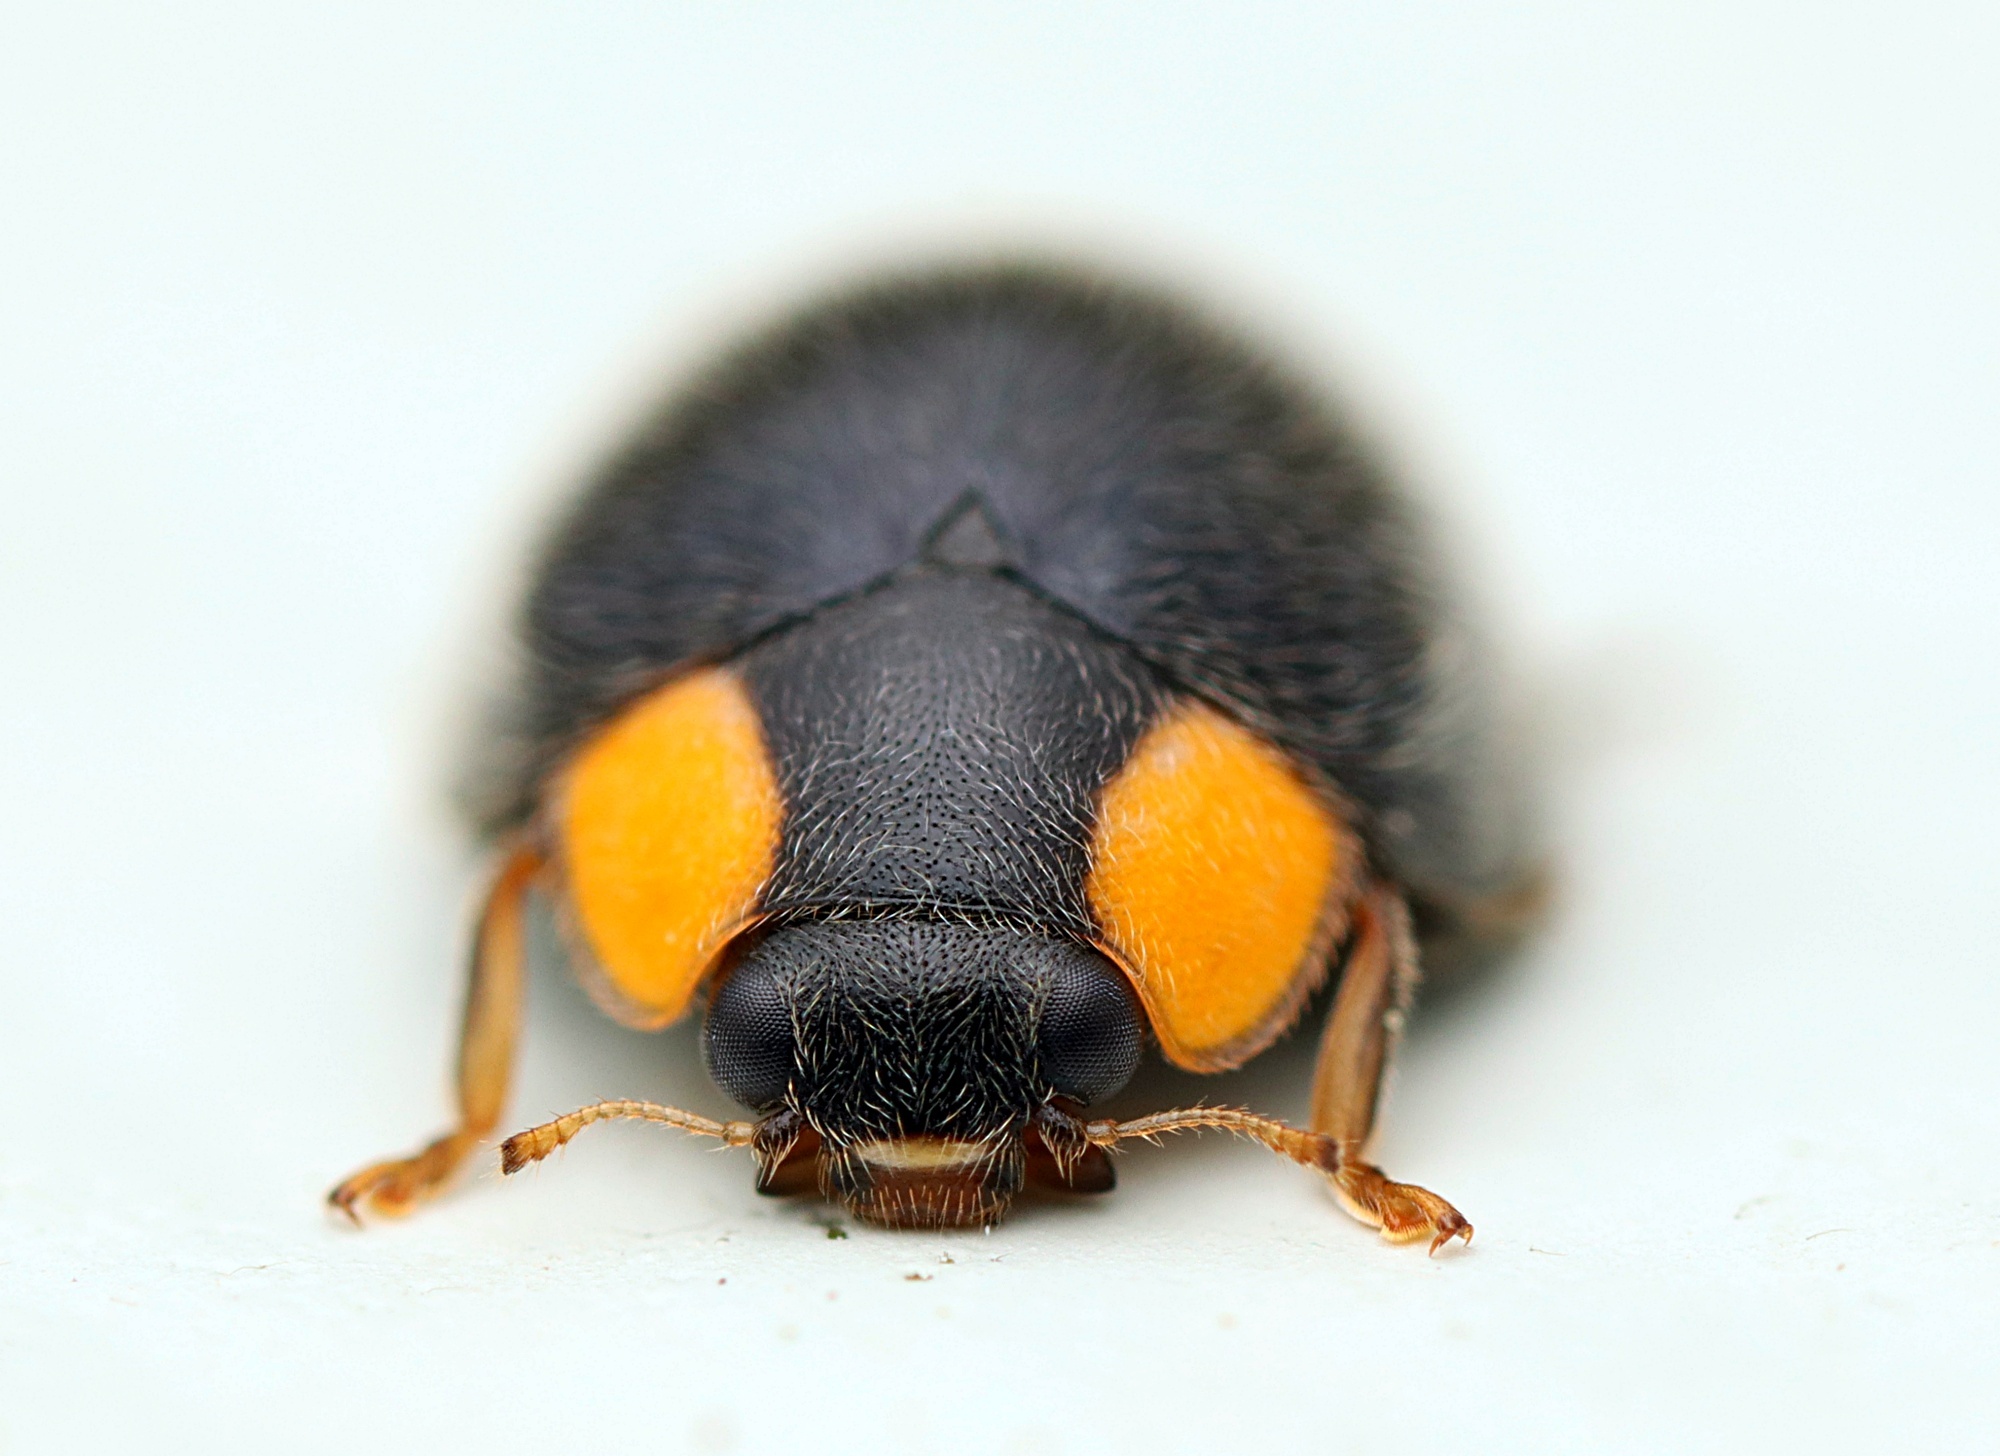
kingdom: Animalia
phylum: Arthropoda
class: Insecta
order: Coleoptera
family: Coccinellidae
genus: Scymnodes
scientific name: Scymnodes lividigaster
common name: Yellowshouldered lady beetle
